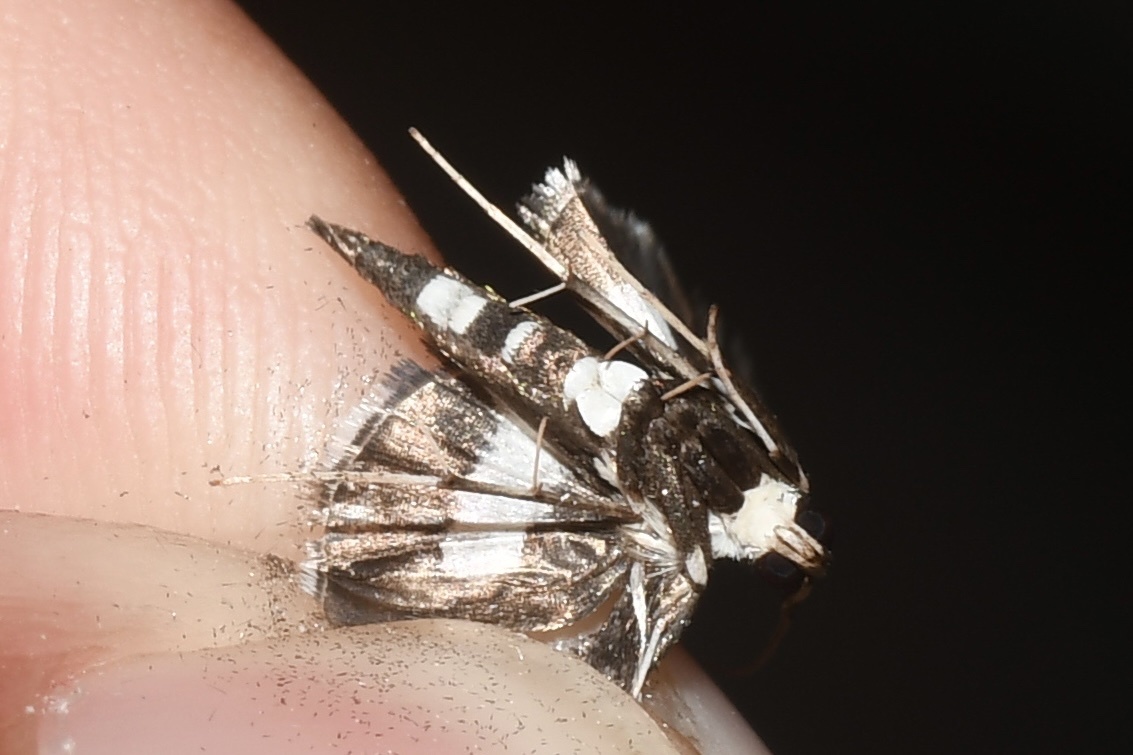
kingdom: Animalia
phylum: Arthropoda
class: Insecta
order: Lepidoptera
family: Crambidae
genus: Desmia
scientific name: Desmia funeralis
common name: Grape leaf folder moth
